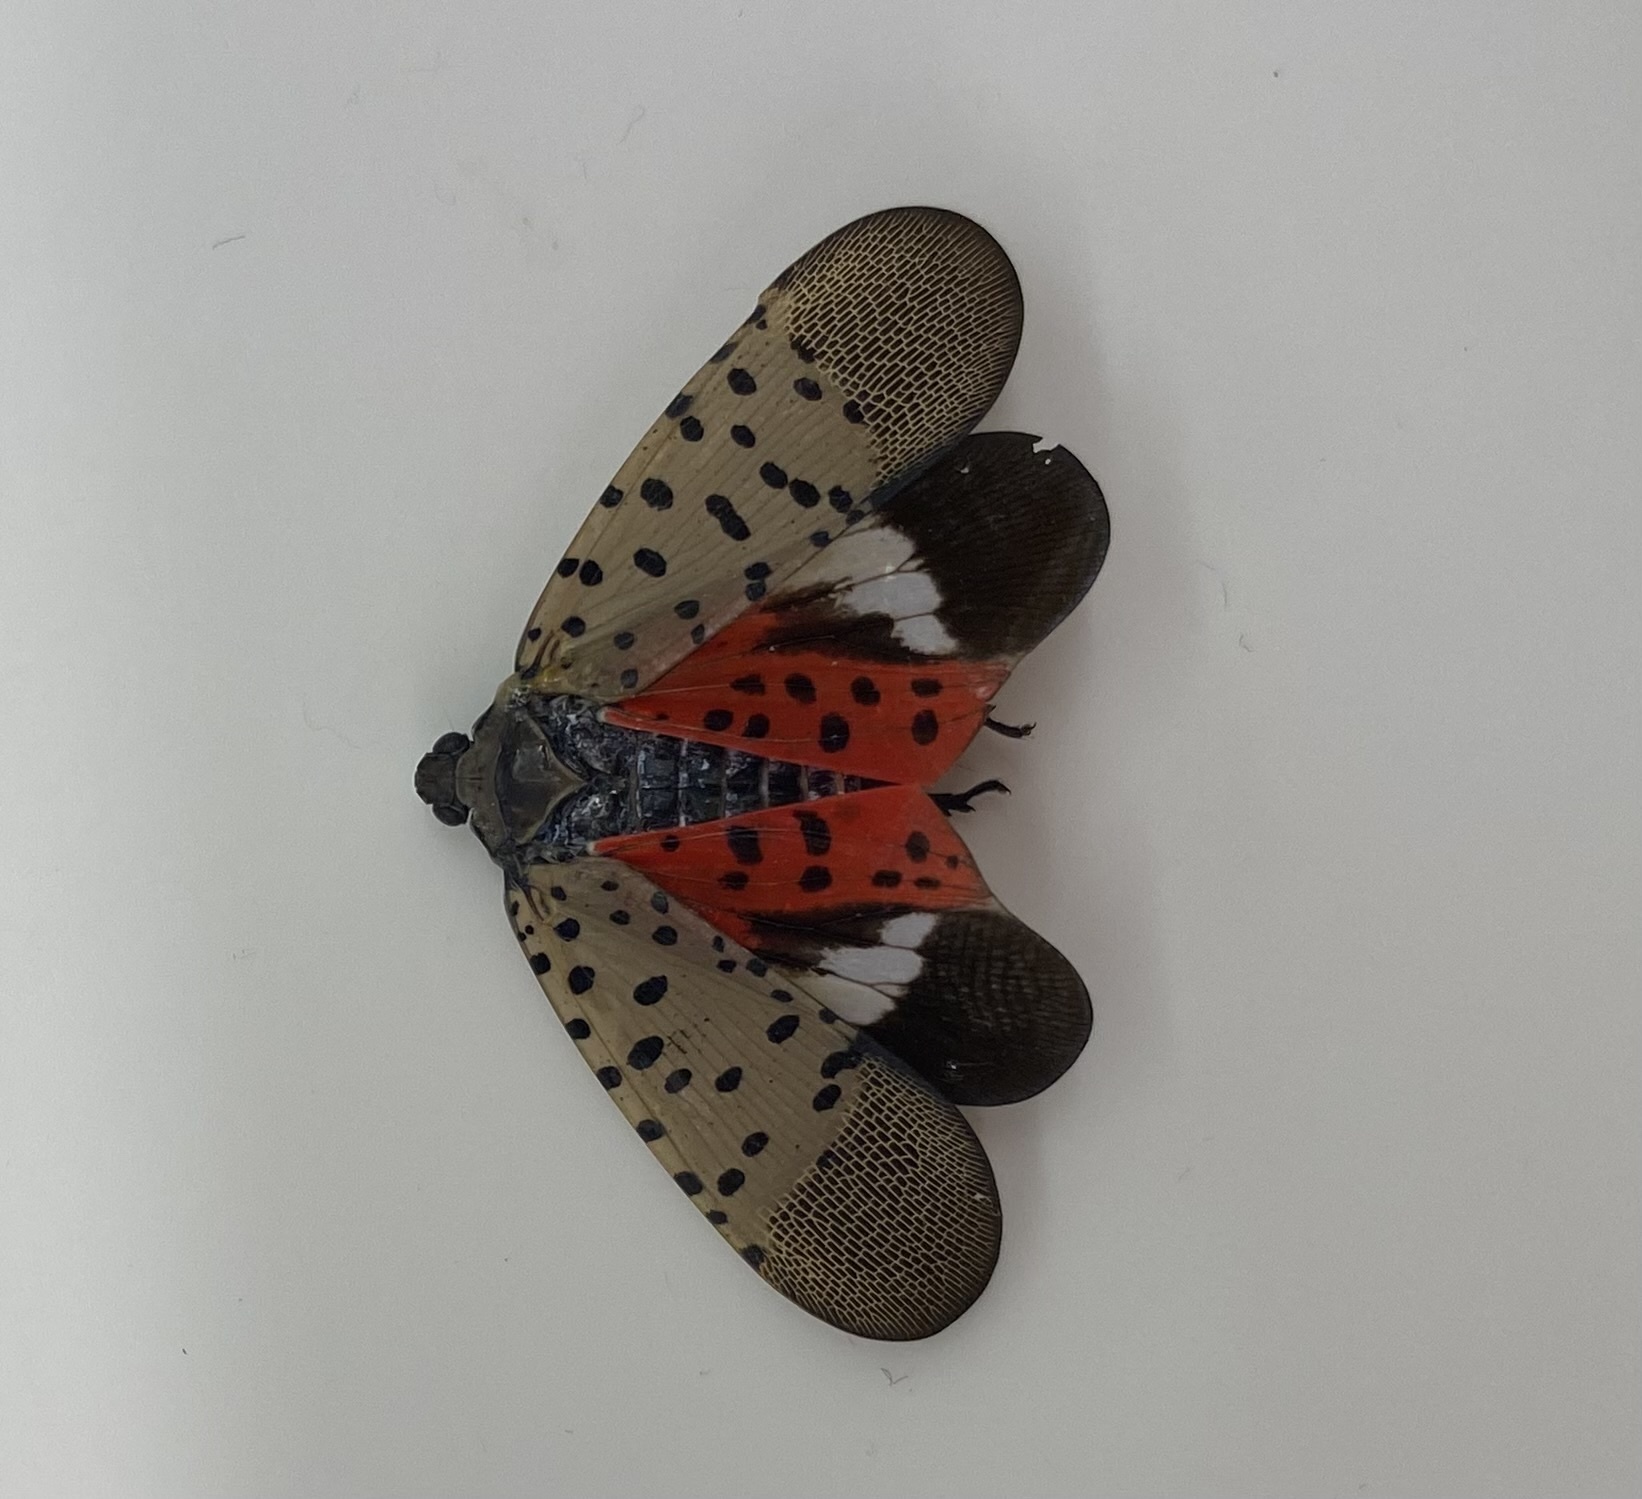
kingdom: Animalia
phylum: Arthropoda
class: Insecta
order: Hemiptera
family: Fulgoridae
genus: Lycorma
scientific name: Lycorma delicatula
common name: Spotted lanternfly
